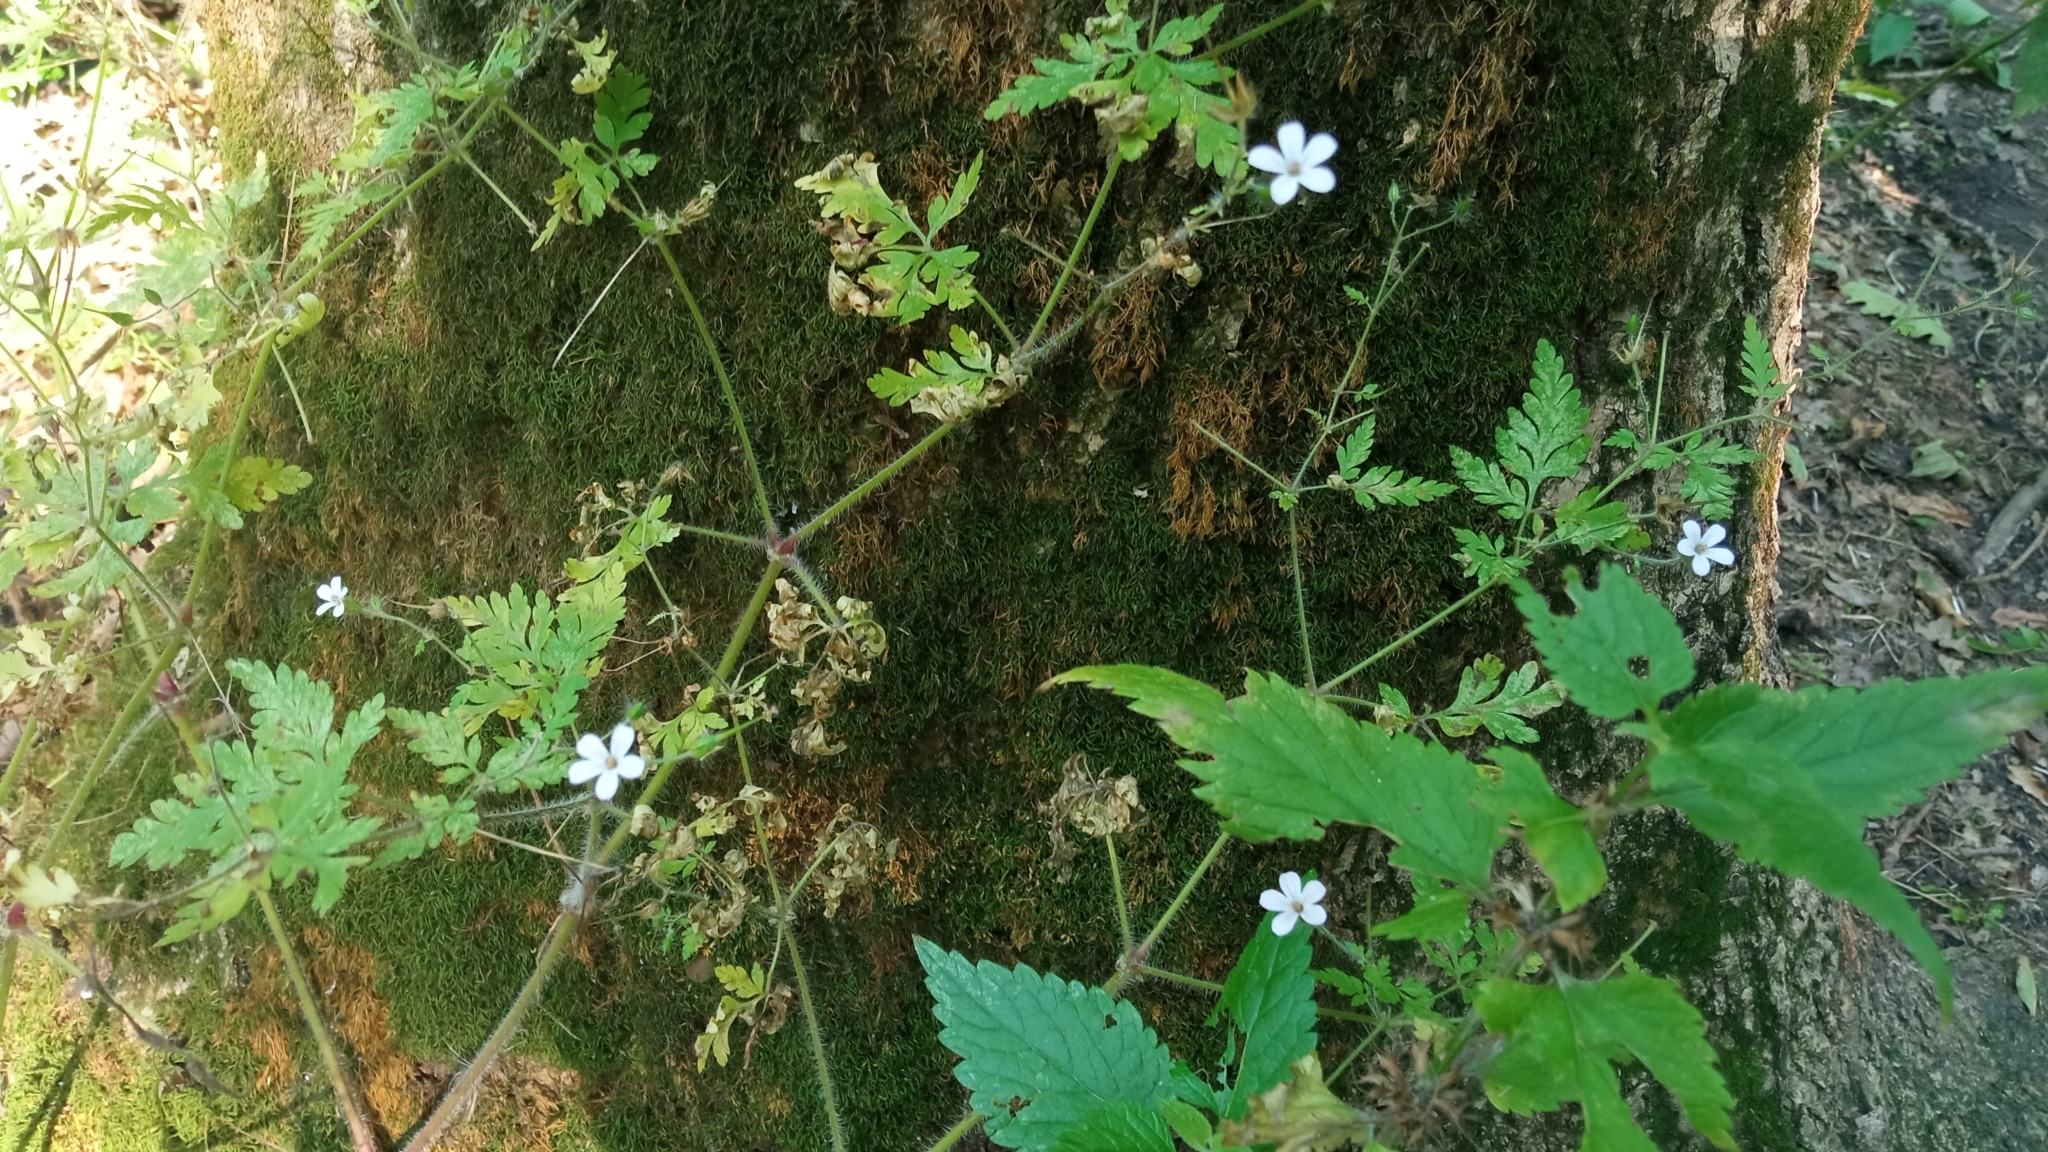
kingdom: Plantae
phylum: Tracheophyta
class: Magnoliopsida
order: Geraniales
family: Geraniaceae
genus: Geranium
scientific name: Geranium robertianum
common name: Herb-robert
